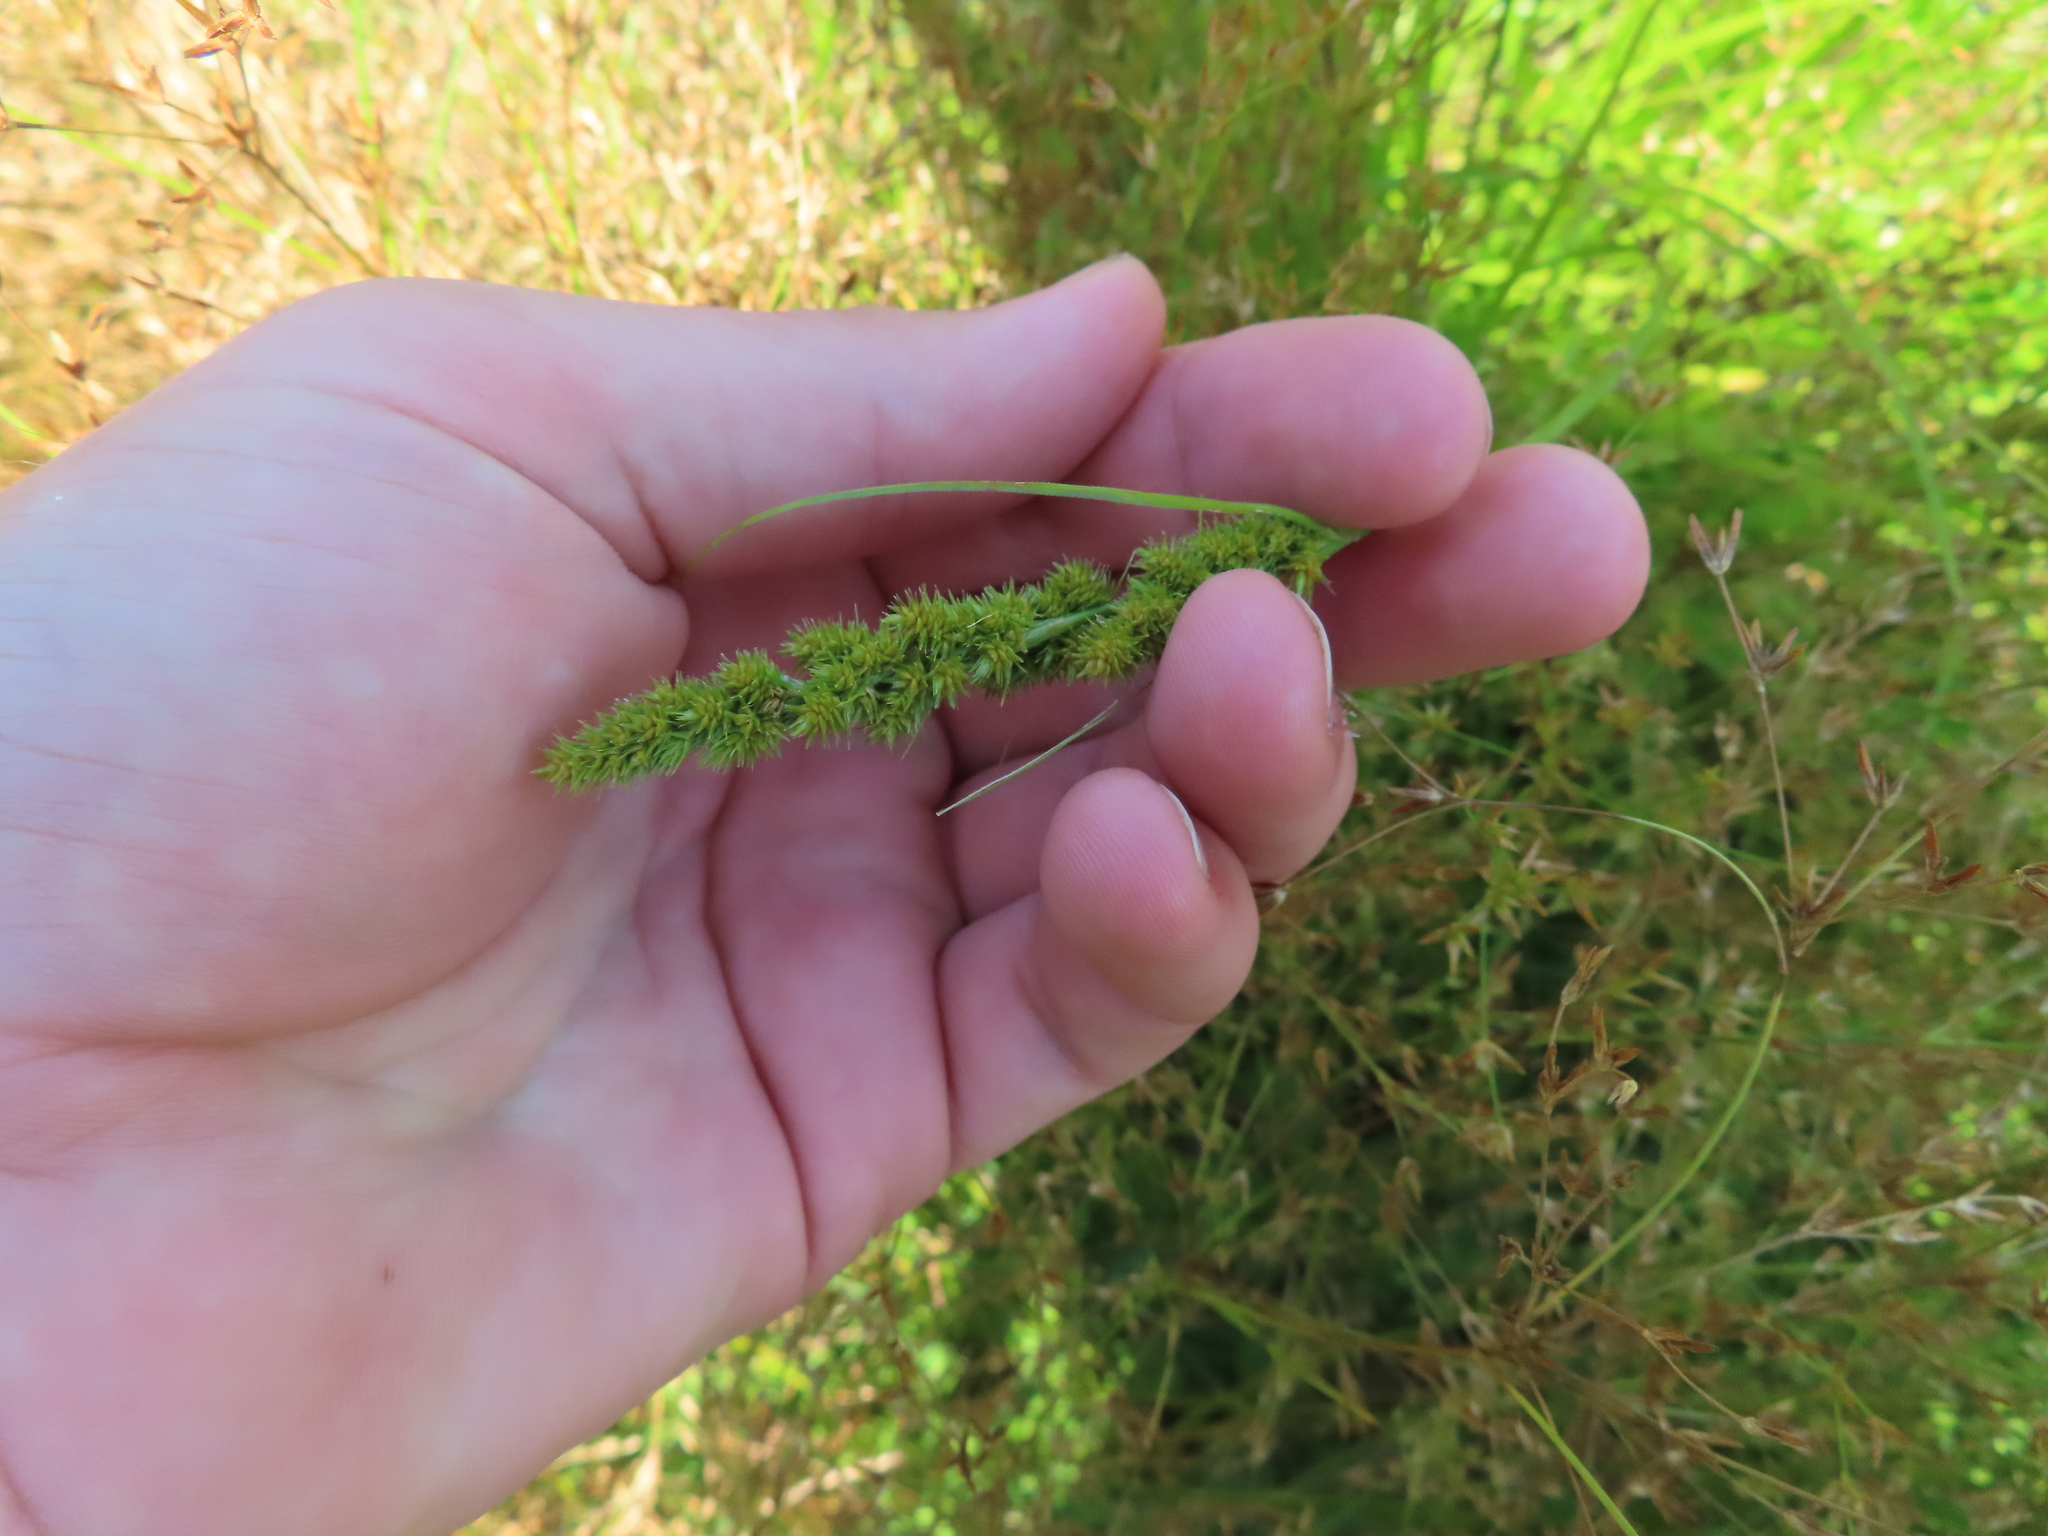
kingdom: Plantae
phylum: Tracheophyta
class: Liliopsida
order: Poales
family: Cyperaceae
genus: Carex
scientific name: Carex vulpinoidea
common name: American fox-sedge
